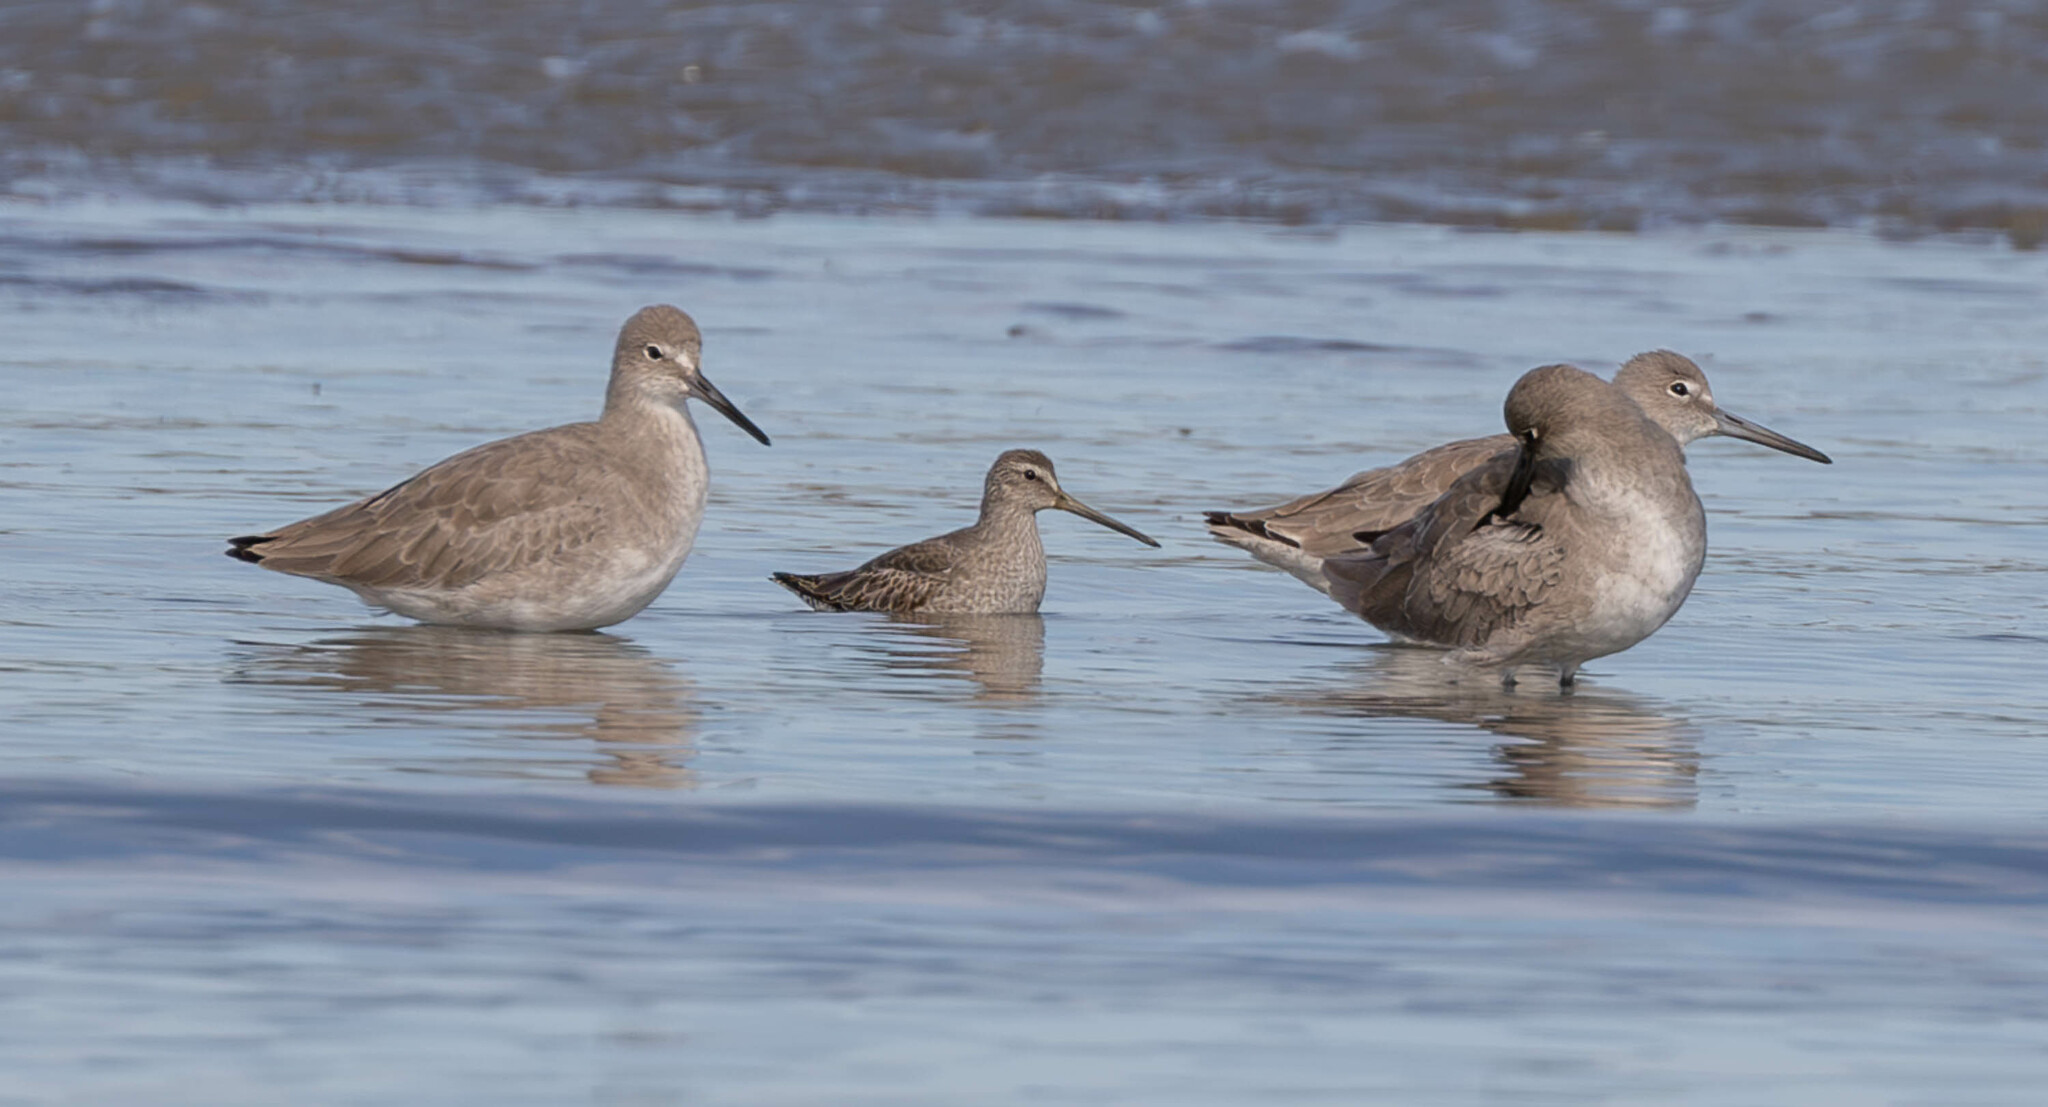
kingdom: Animalia
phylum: Chordata
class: Aves
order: Charadriiformes
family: Scolopacidae
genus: Limnodromus
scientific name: Limnodromus griseus
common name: Short-billed dowitcher
